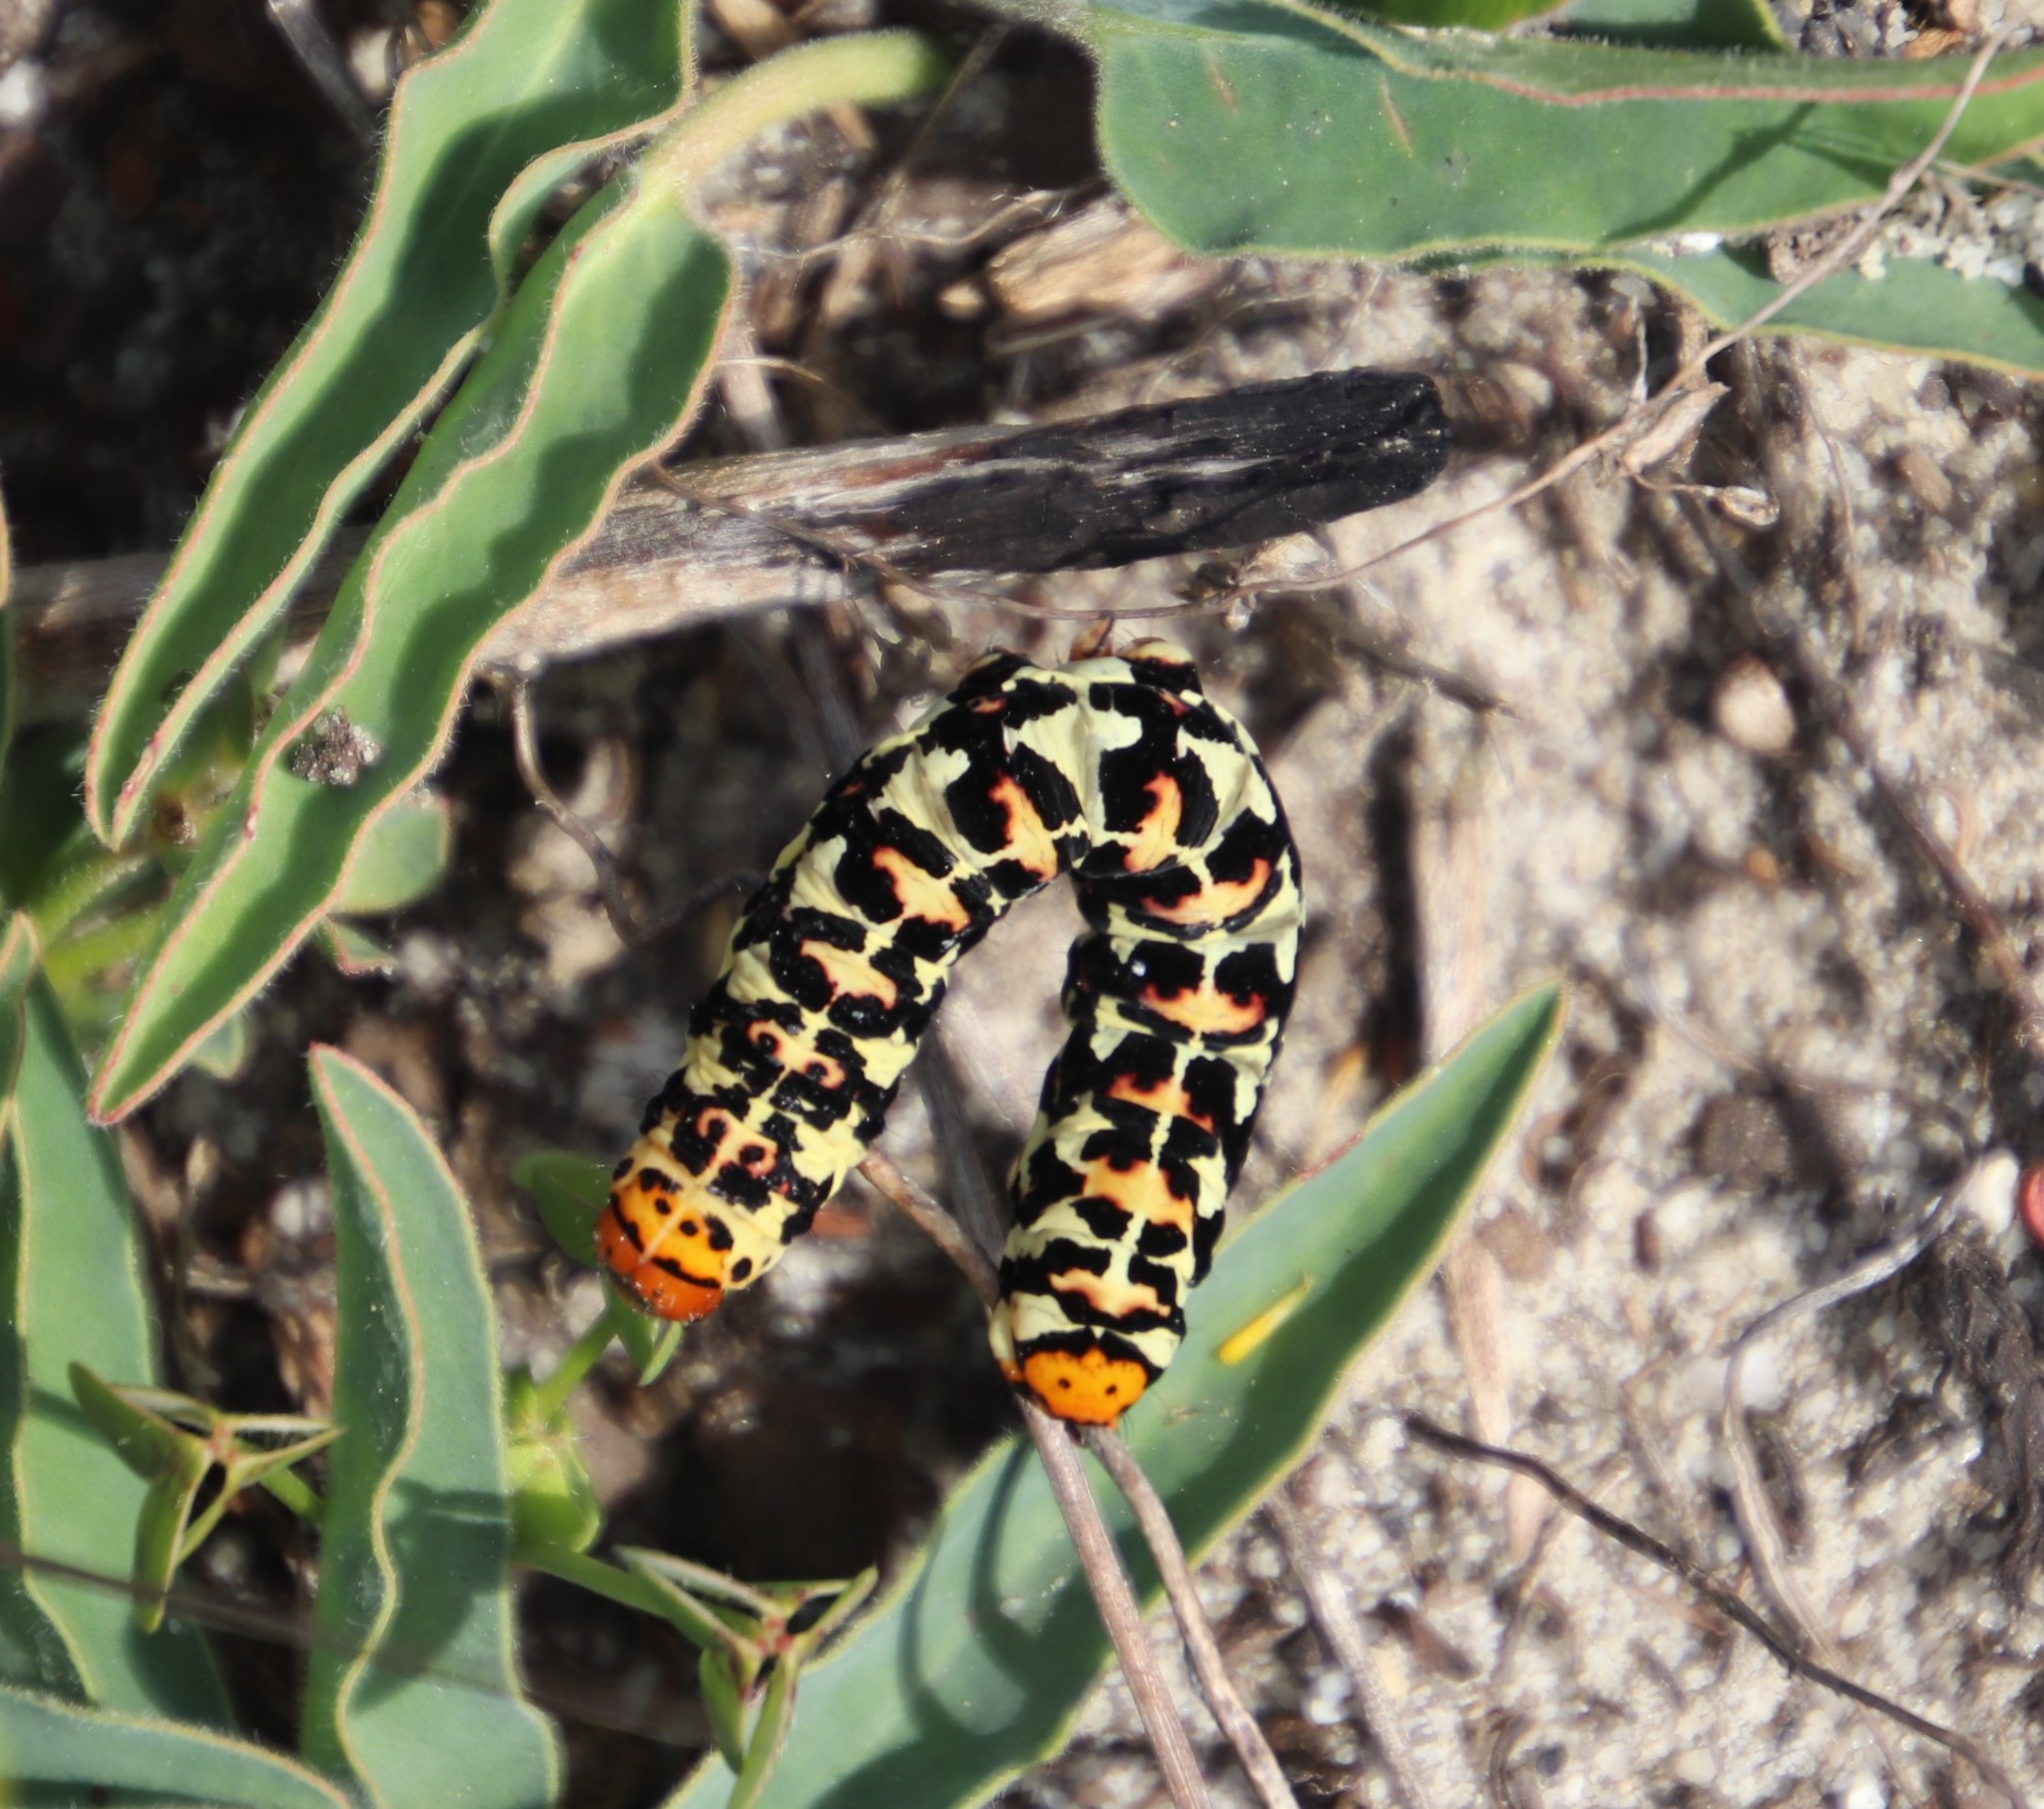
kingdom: Animalia
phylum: Arthropoda
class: Insecta
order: Lepidoptera
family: Noctuidae
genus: Diaphone
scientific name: Diaphone eumela
